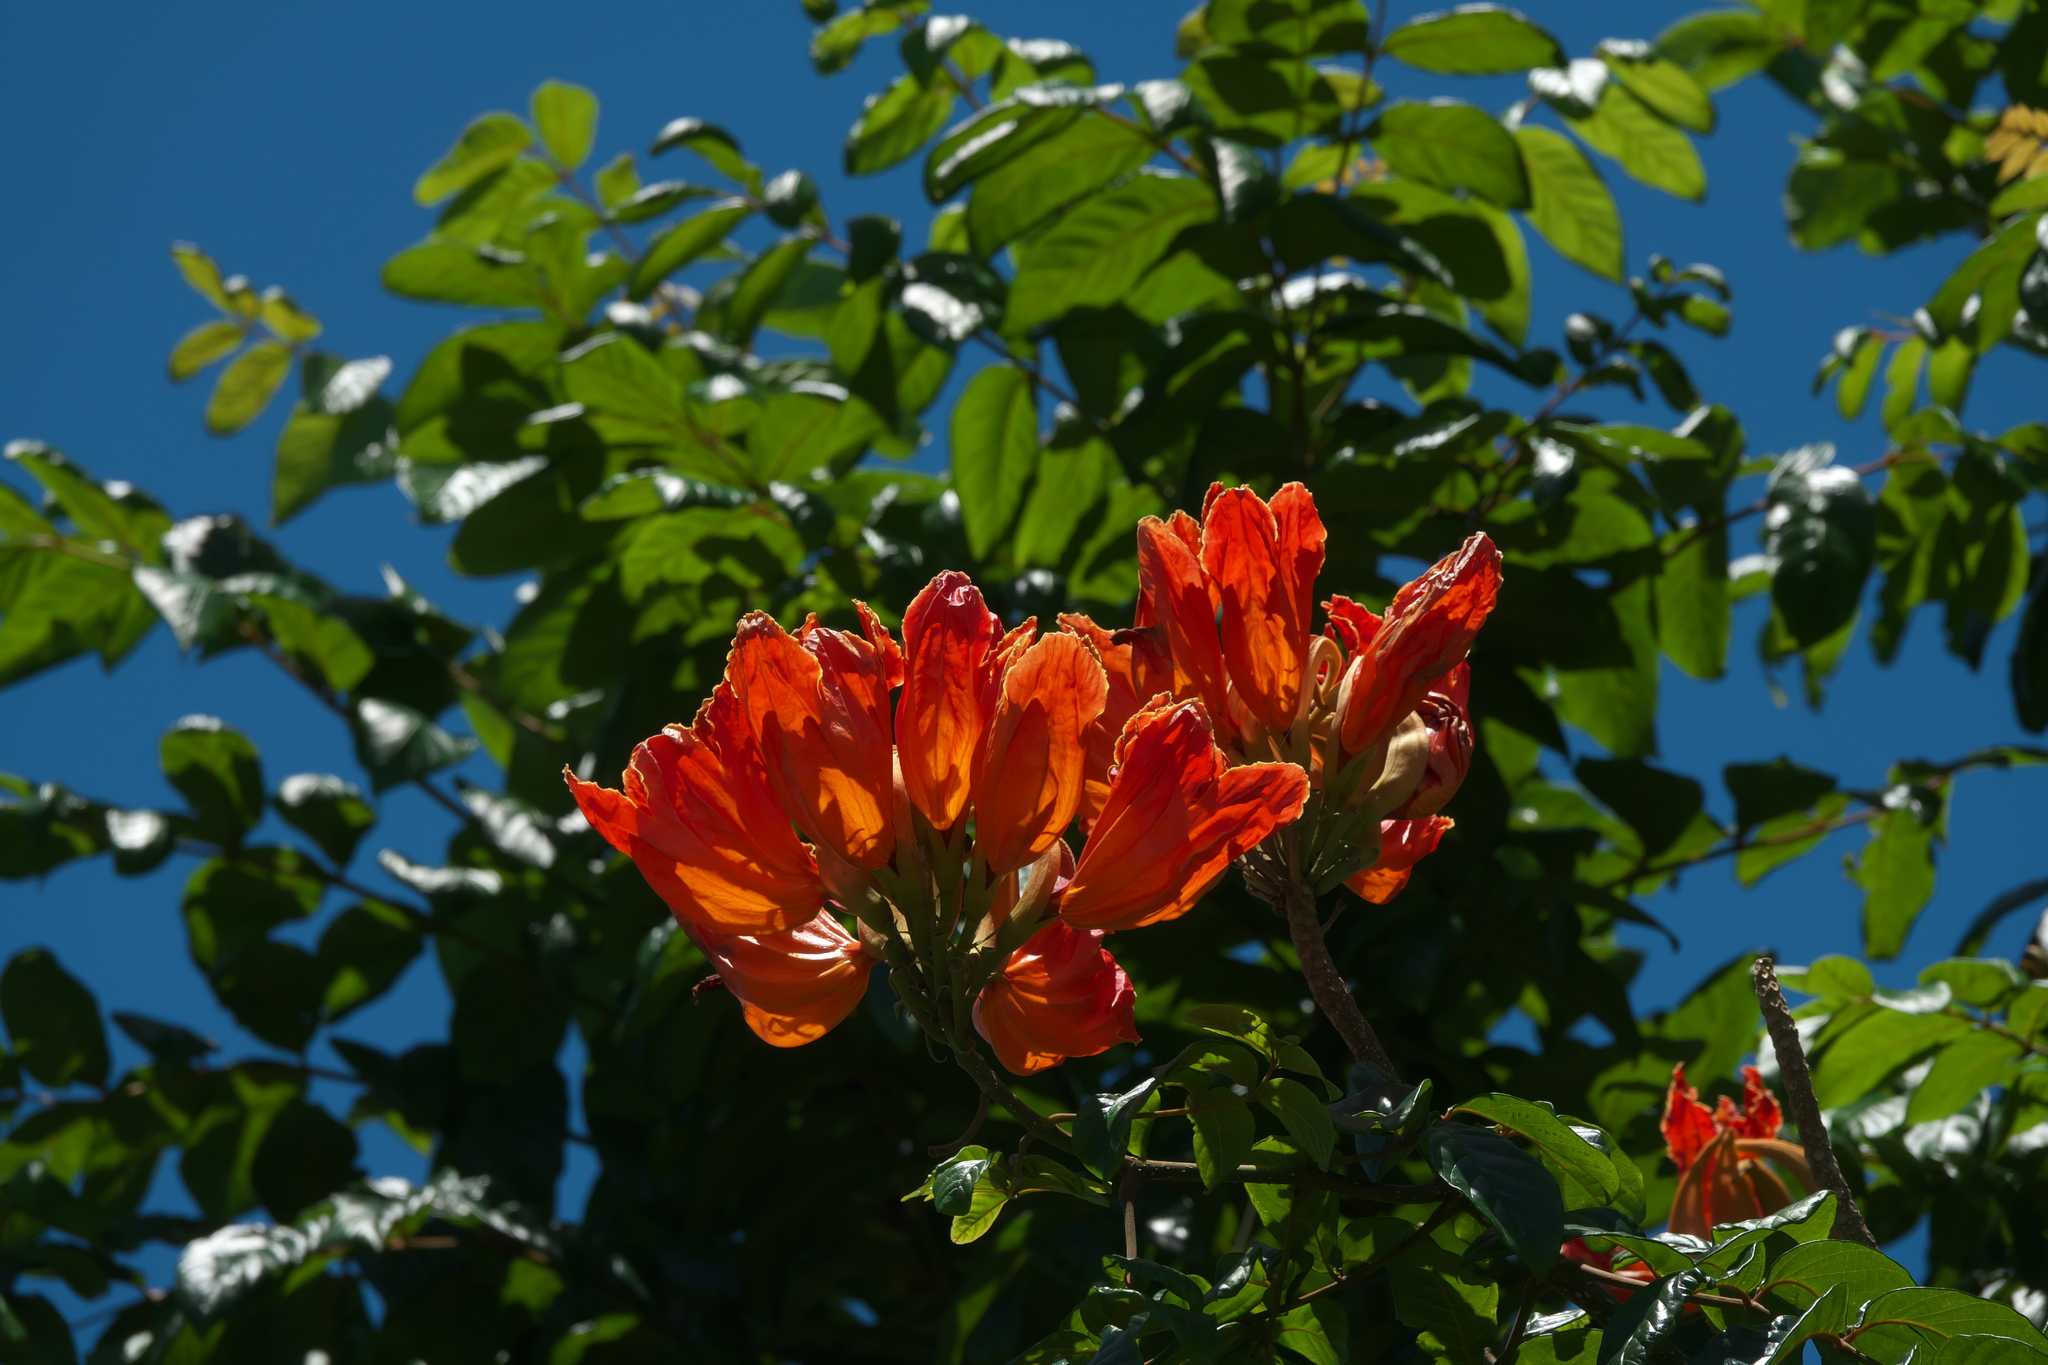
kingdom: Plantae
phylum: Tracheophyta
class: Magnoliopsida
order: Lamiales
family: Bignoniaceae
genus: Spathodea
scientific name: Spathodea campanulata
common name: African tuliptree
